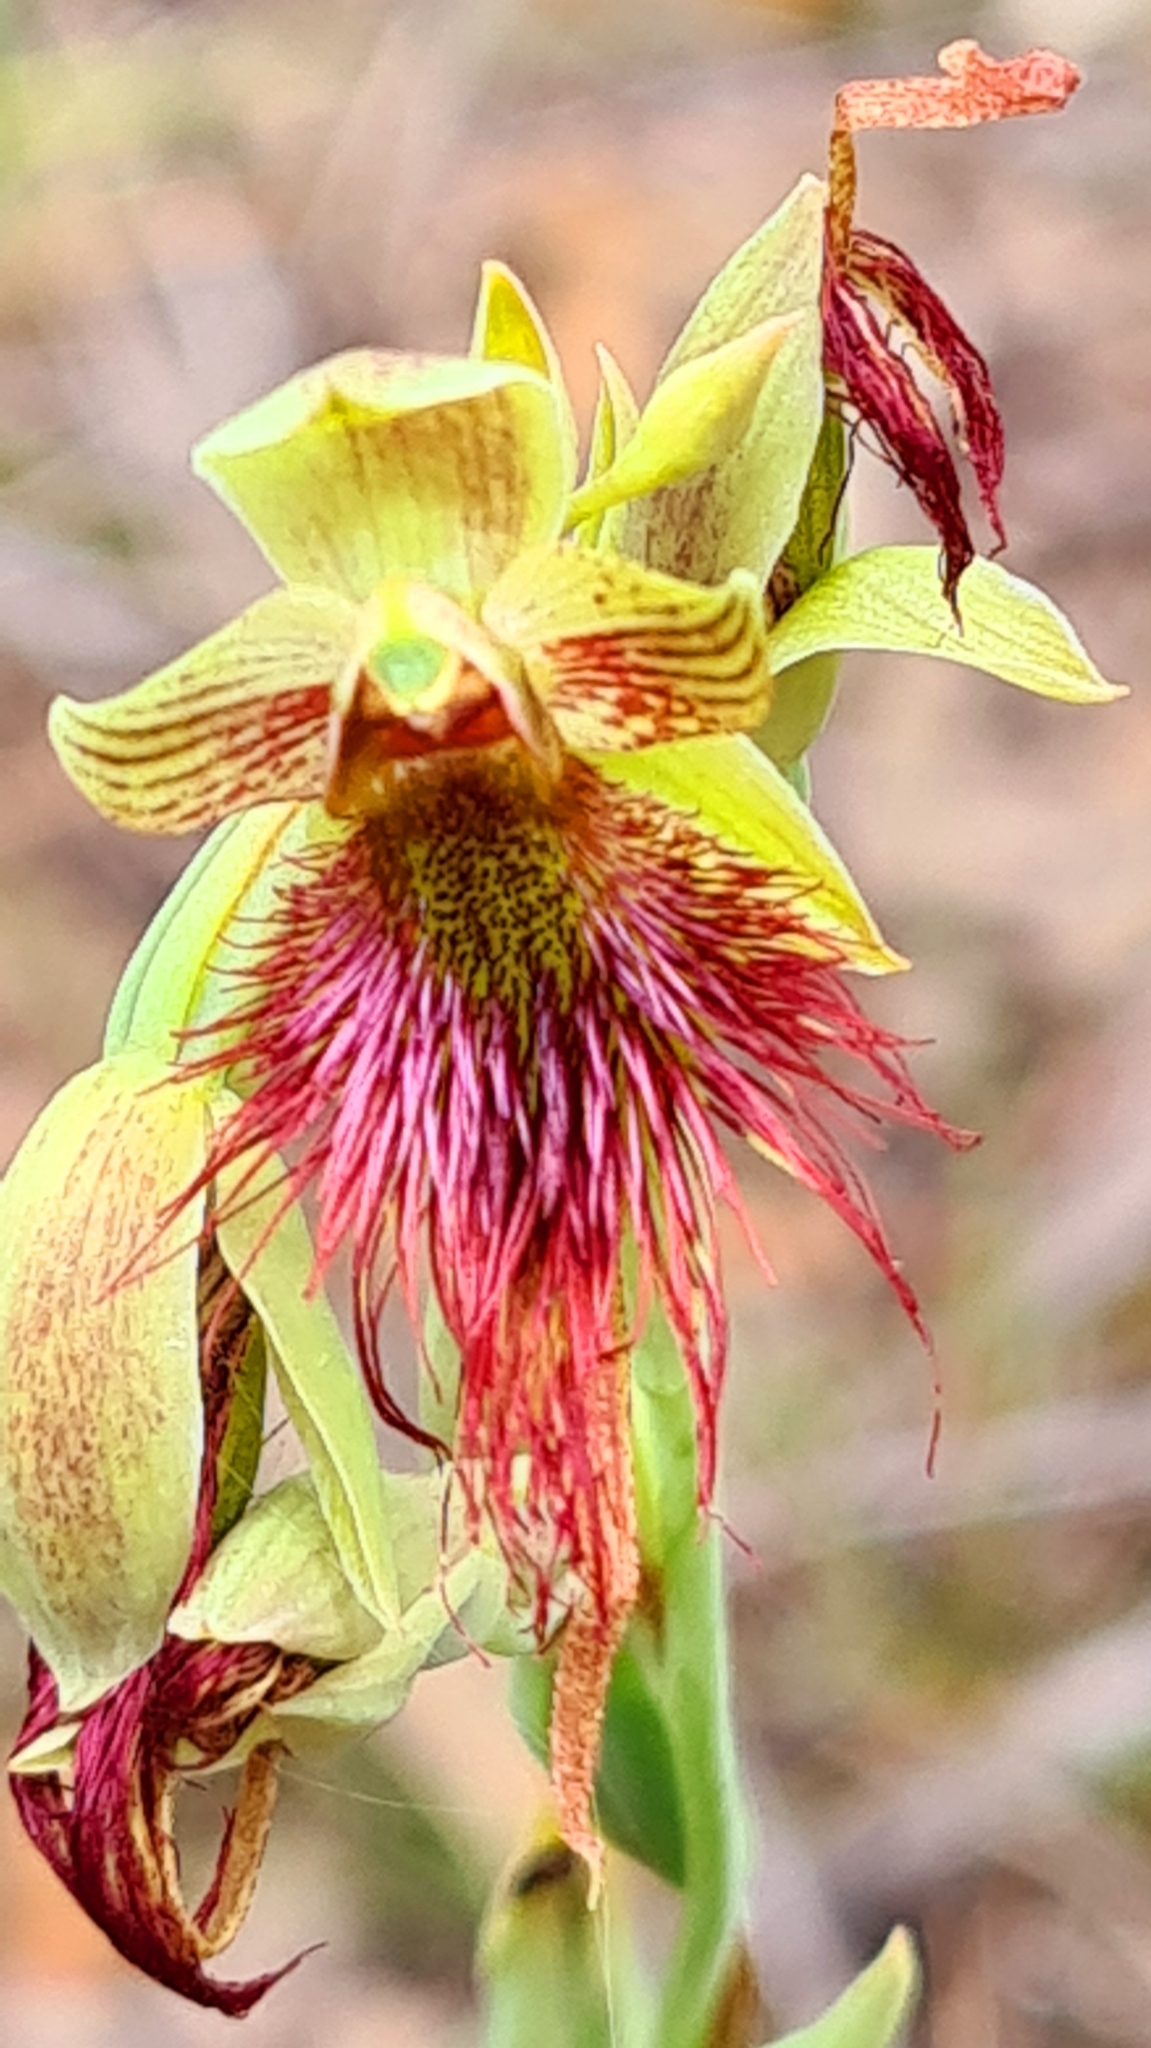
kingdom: Plantae
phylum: Tracheophyta
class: Liliopsida
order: Asparagales
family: Orchidaceae
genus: Calochilus
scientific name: Calochilus paludosus
